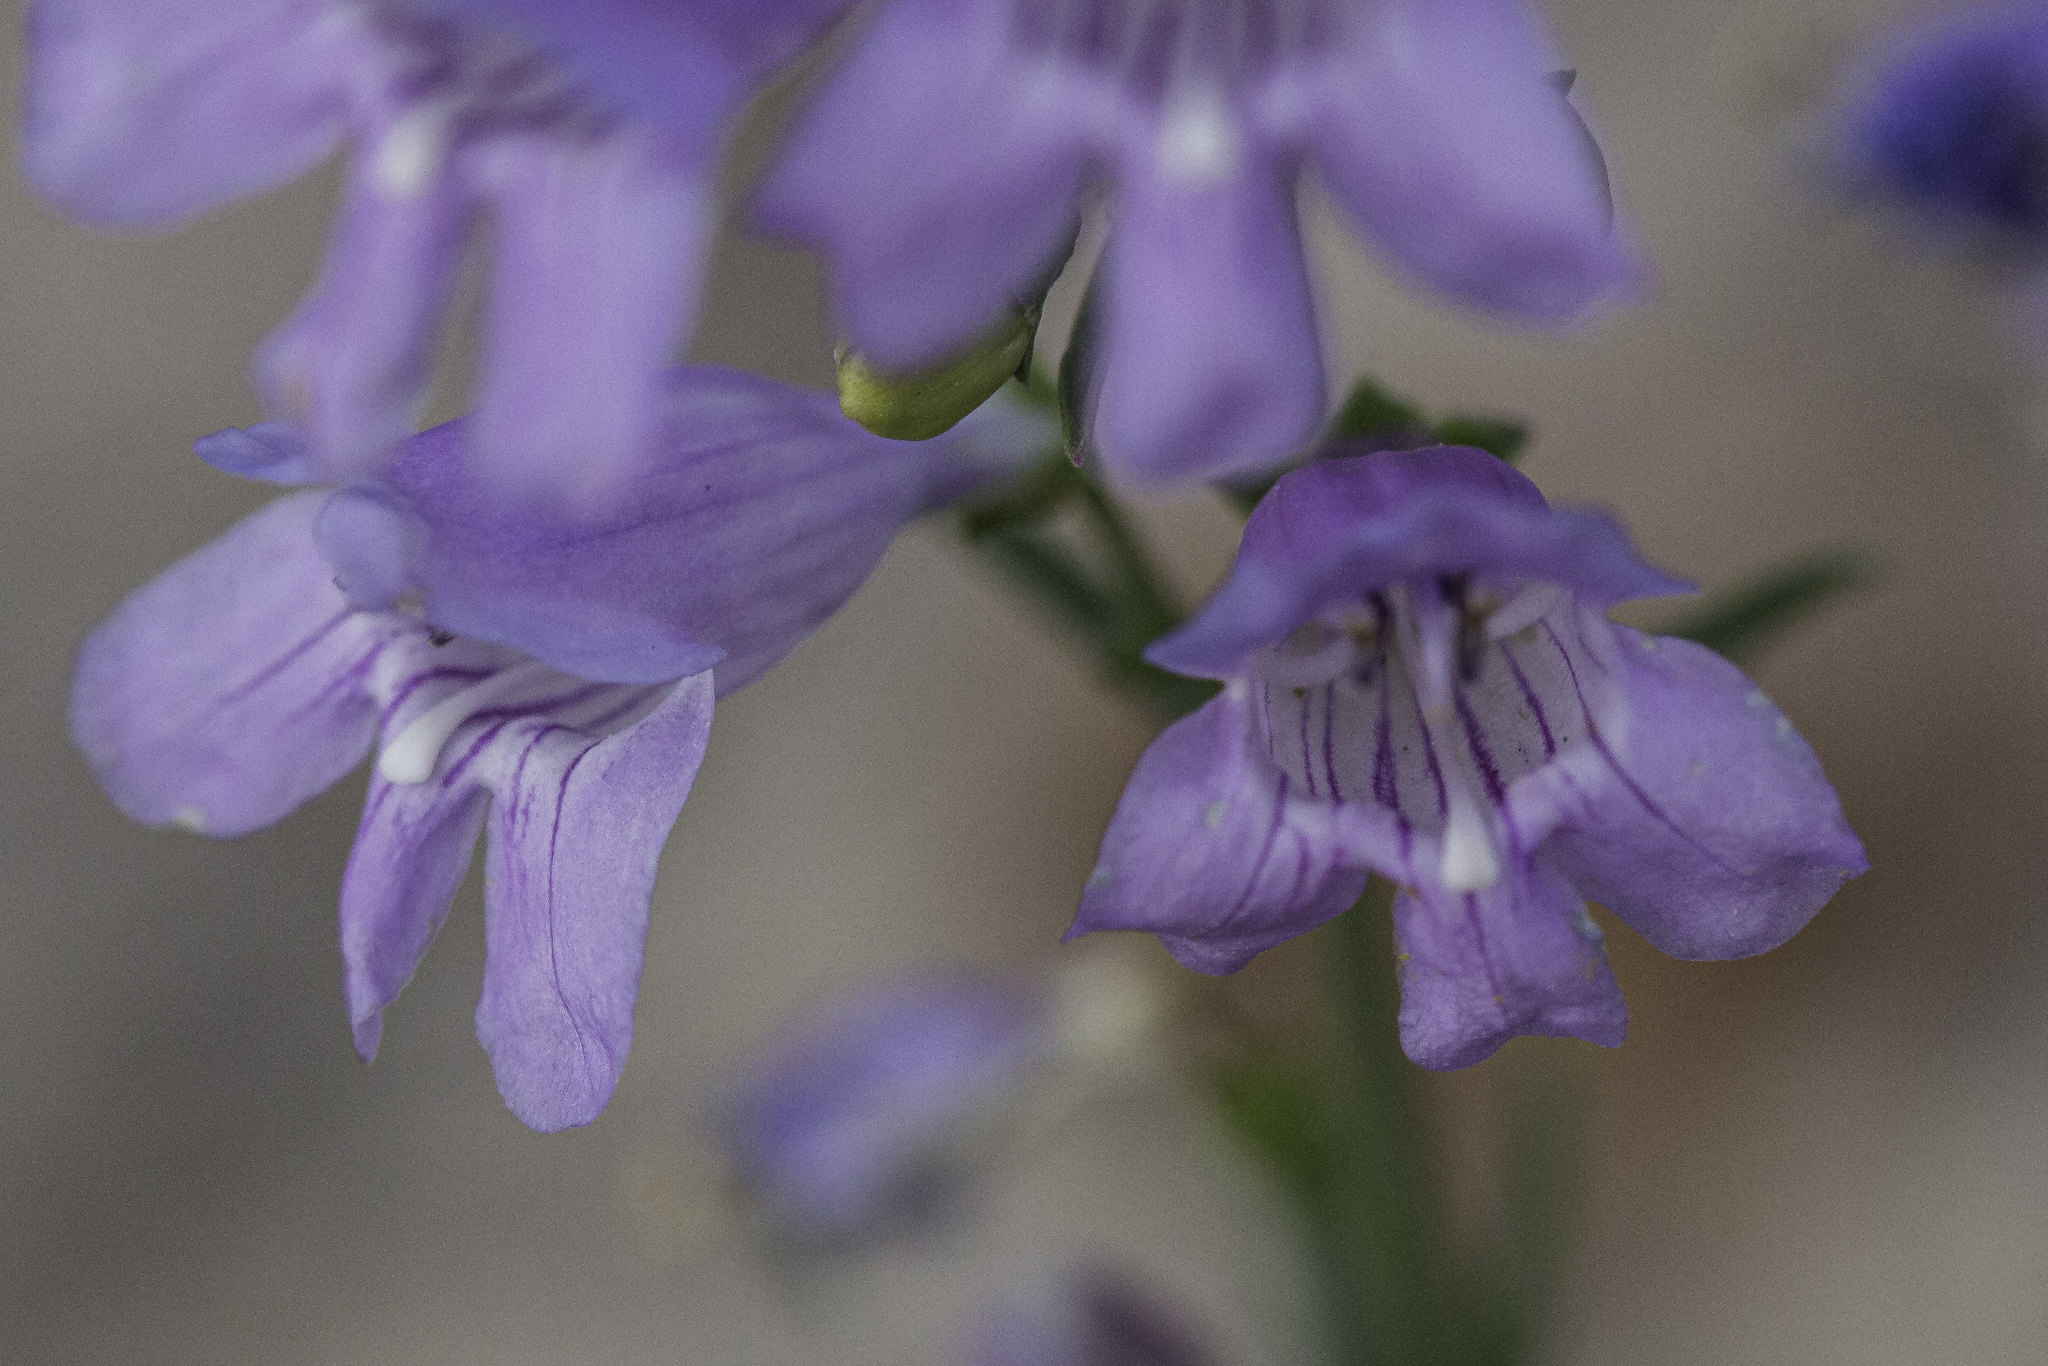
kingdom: Plantae
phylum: Tracheophyta
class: Magnoliopsida
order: Lamiales
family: Plantaginaceae
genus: Penstemon
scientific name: Penstemon virgatus
